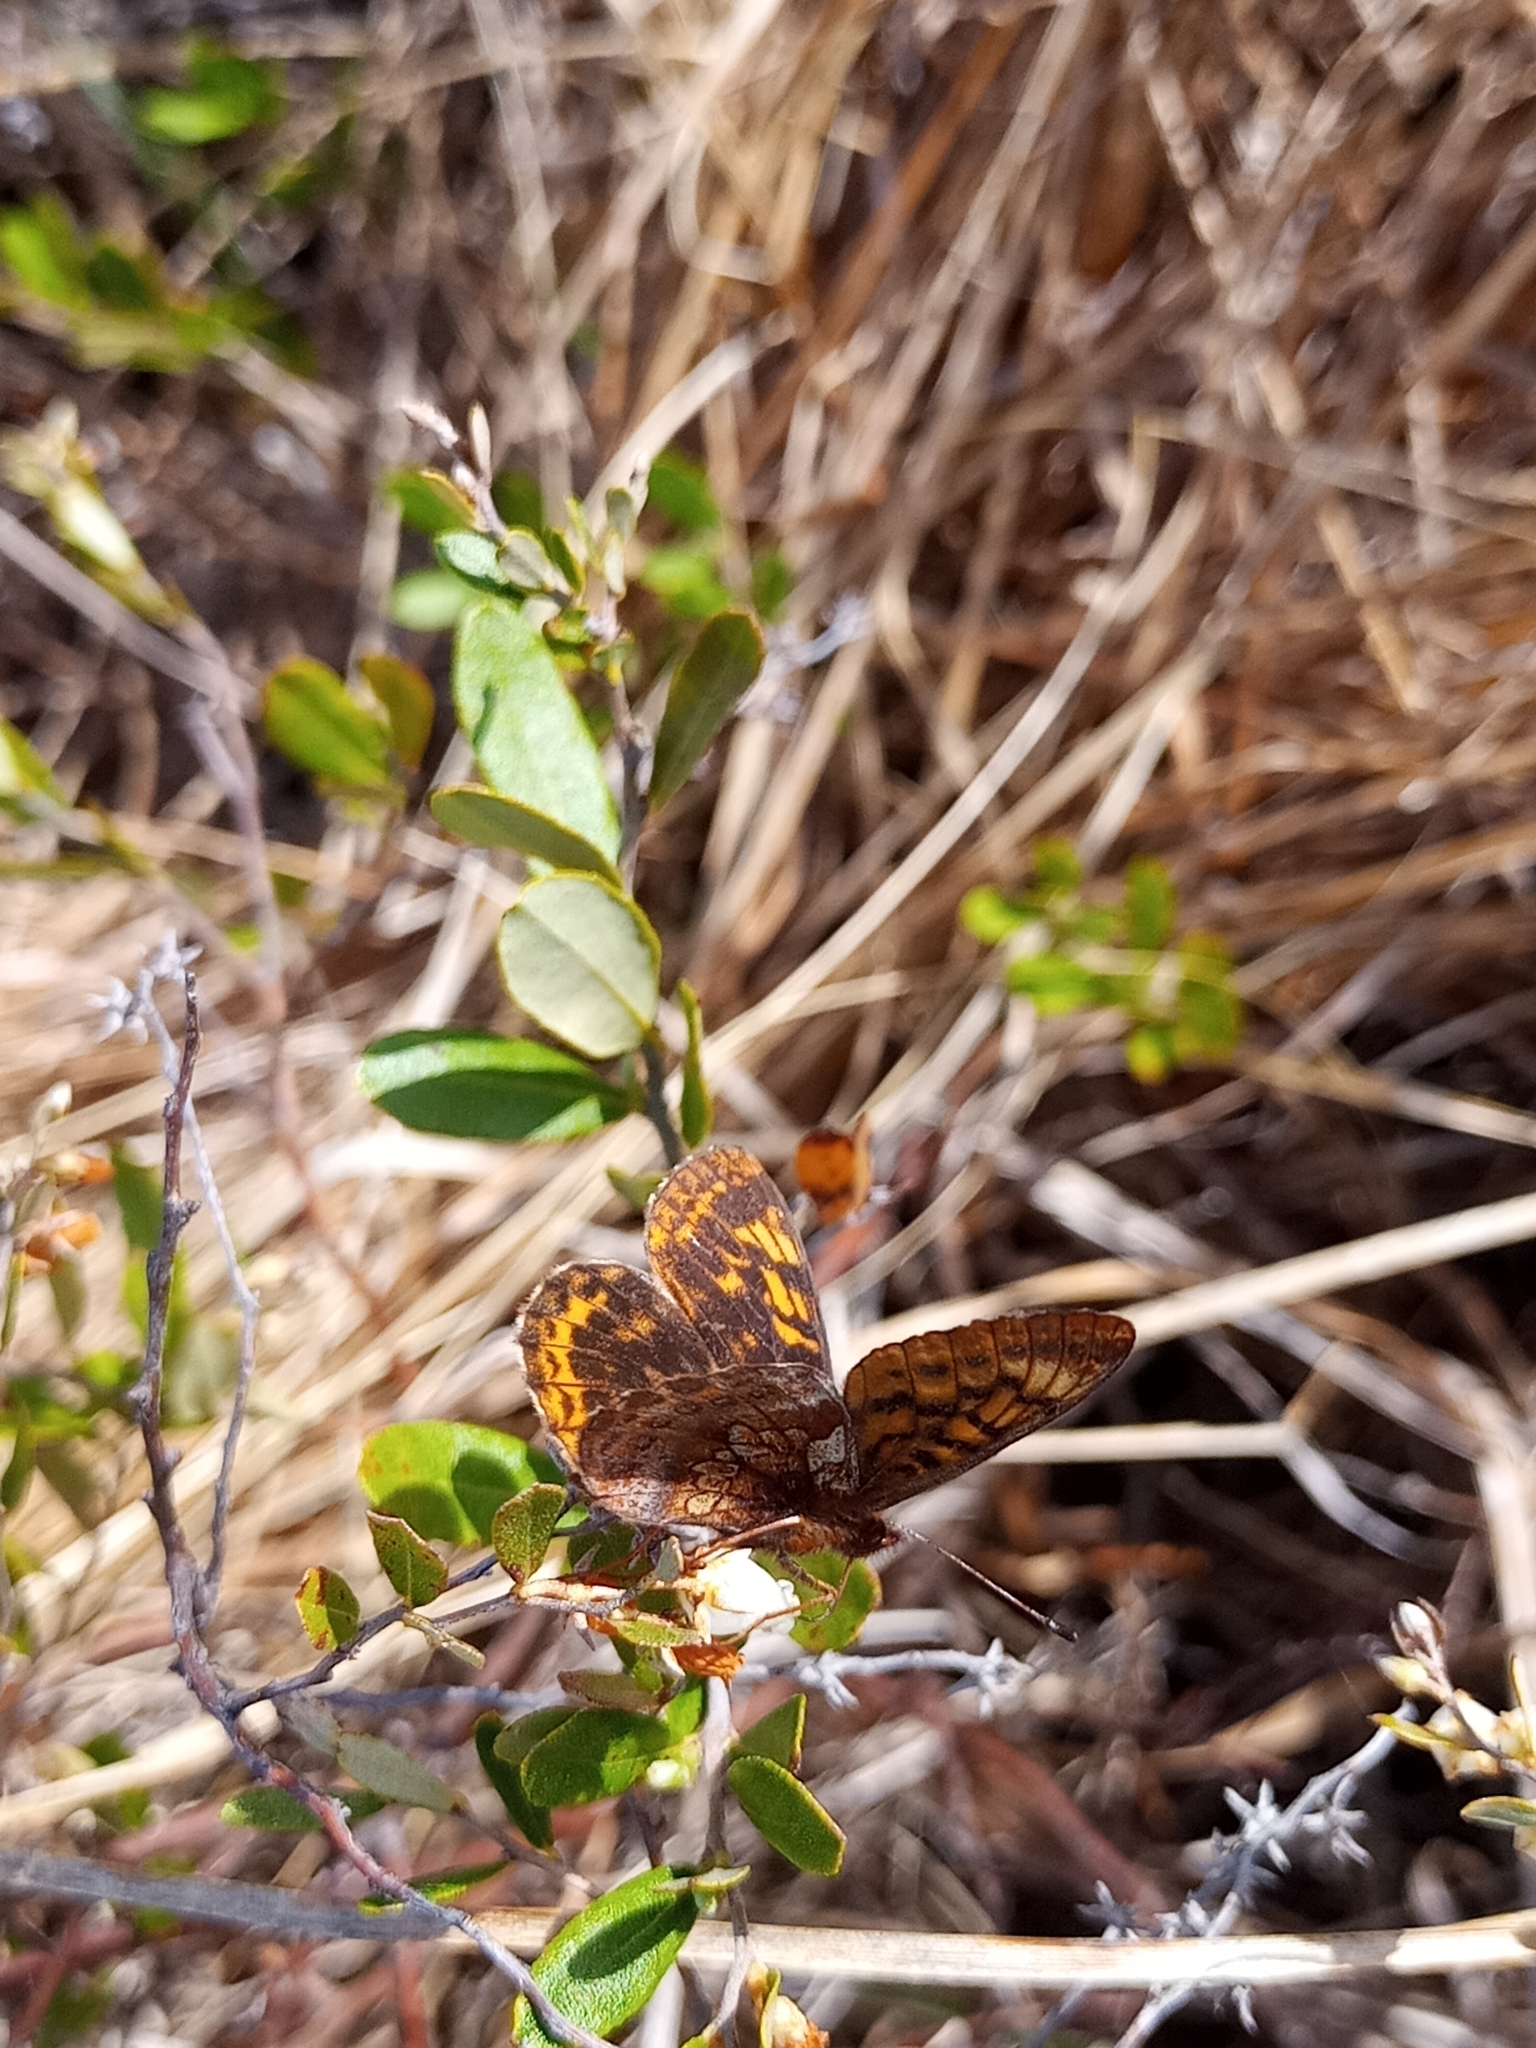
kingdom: Animalia
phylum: Arthropoda
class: Insecta
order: Lepidoptera
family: Nymphalidae
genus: Boloria
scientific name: Boloria frigga
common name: Frigga's fritillary
